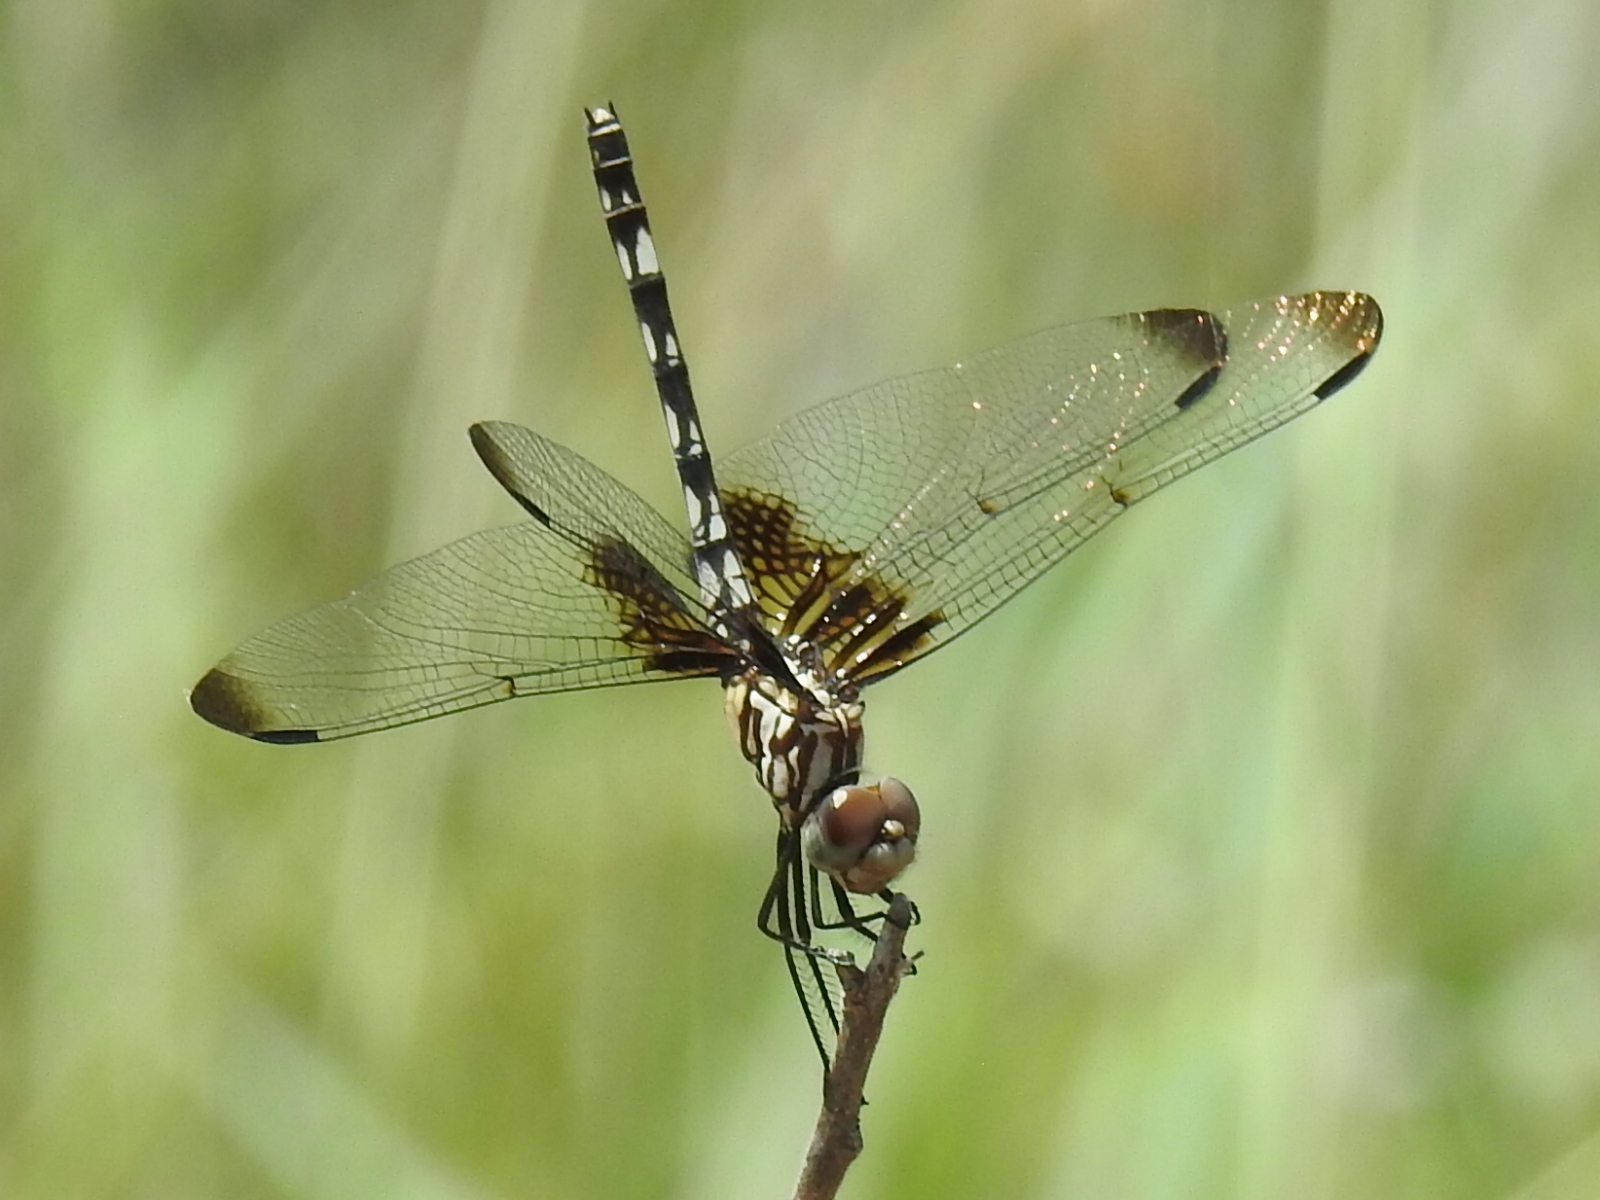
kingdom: Animalia
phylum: Arthropoda
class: Insecta
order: Odonata
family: Libellulidae
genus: Dythemis
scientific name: Dythemis fugax
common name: Checkered setwing
